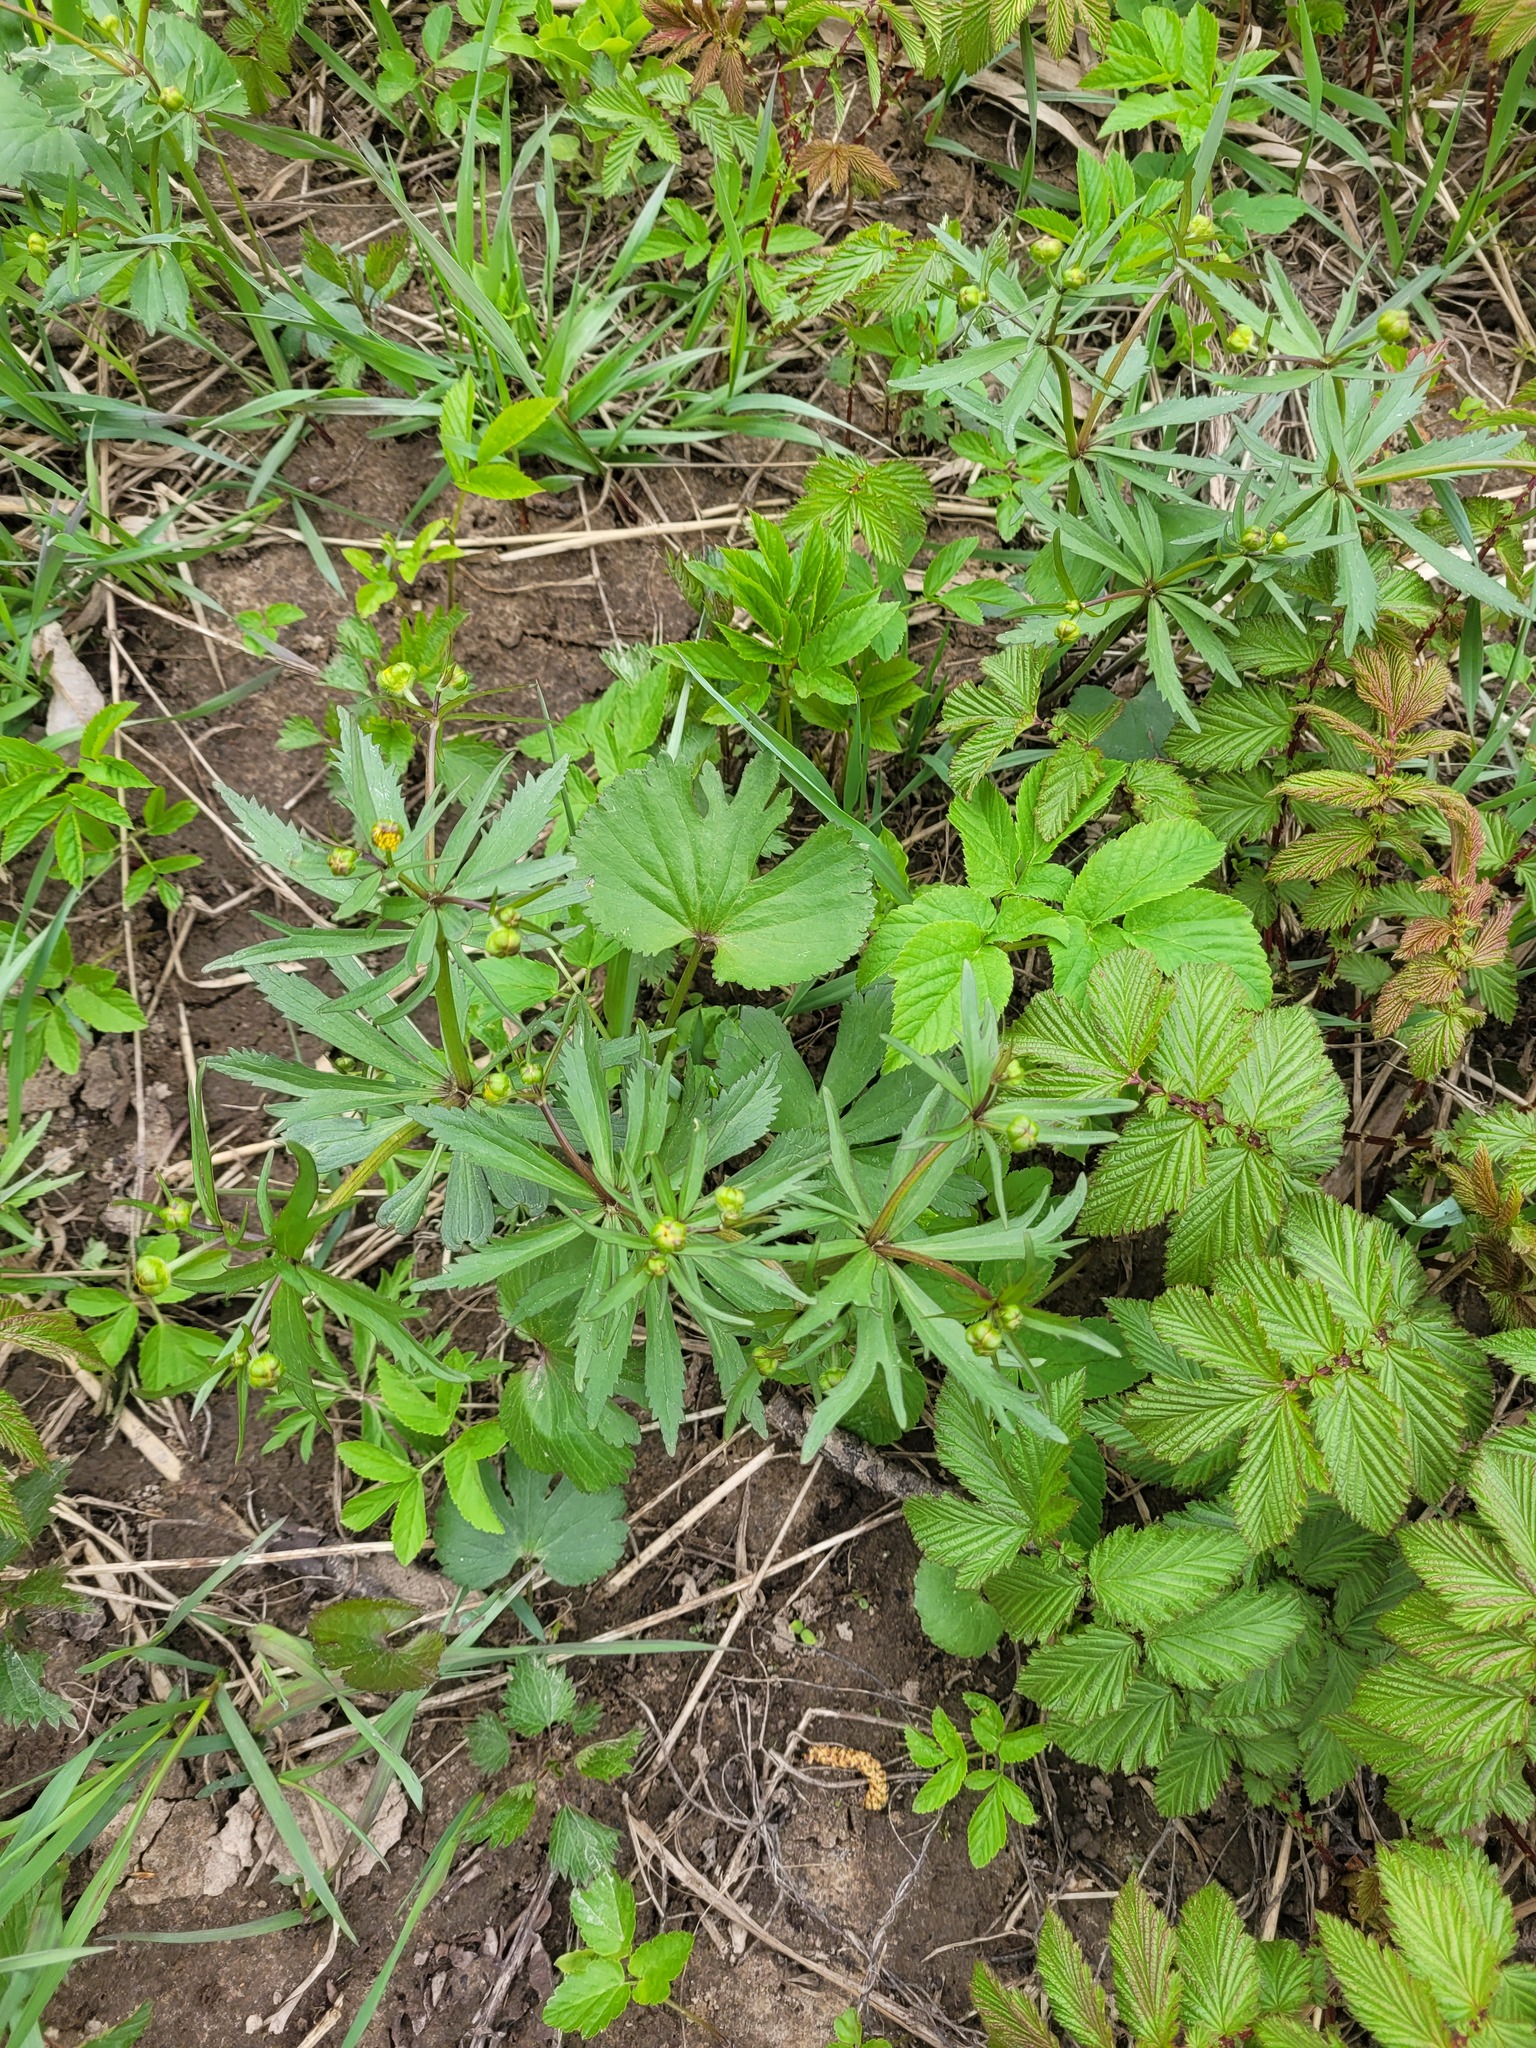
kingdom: Plantae
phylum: Tracheophyta
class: Magnoliopsida
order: Ranunculales
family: Ranunculaceae
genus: Ranunculus
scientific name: Ranunculus fallax
